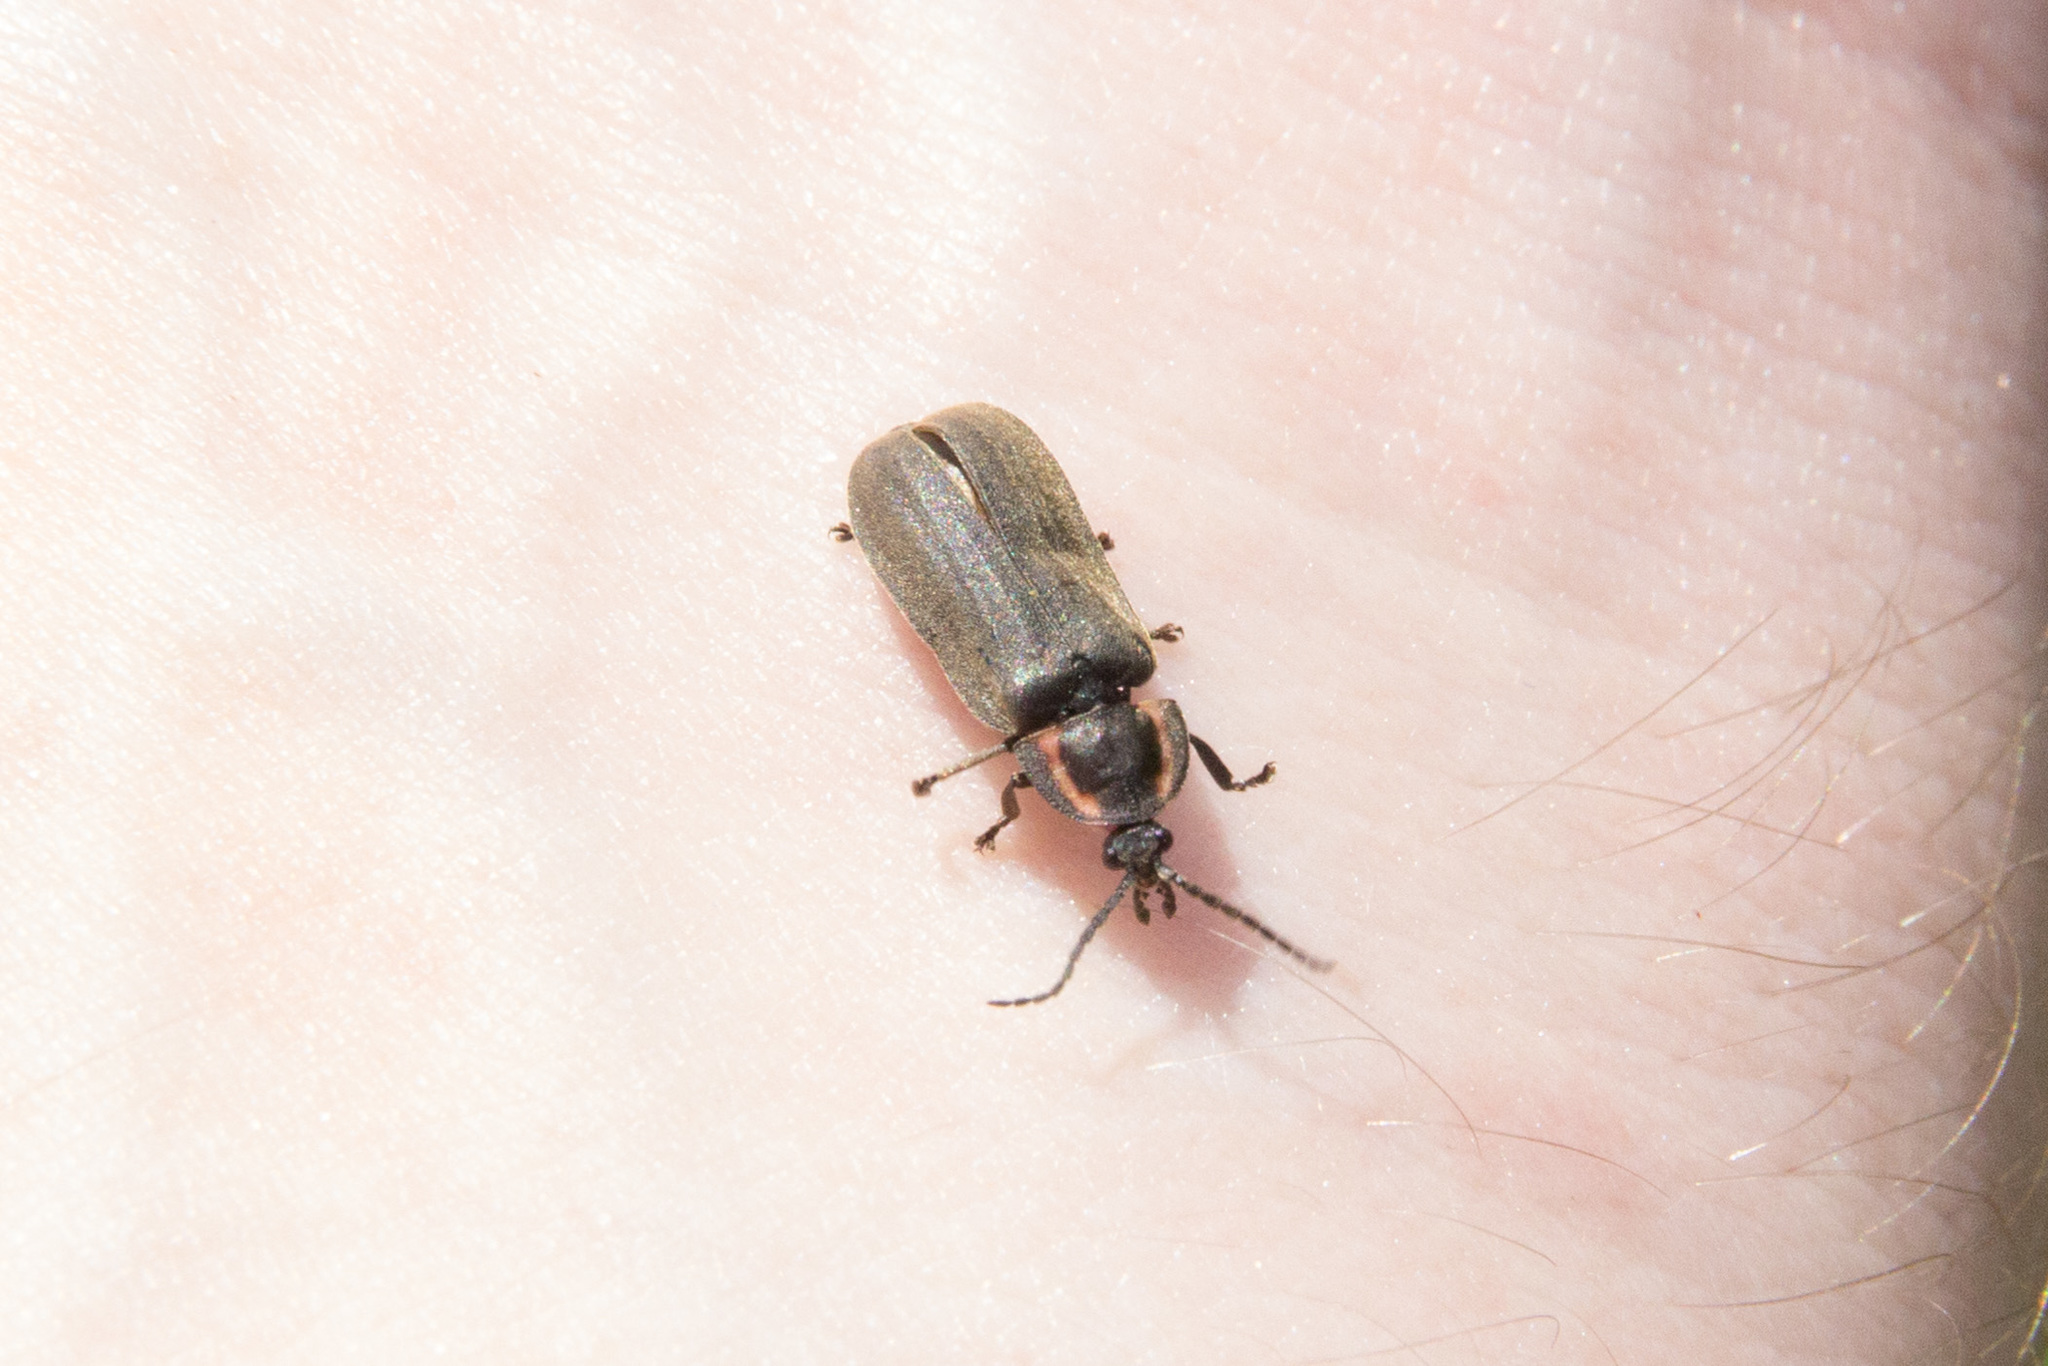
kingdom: Animalia
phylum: Arthropoda
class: Insecta
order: Coleoptera
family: Lampyridae
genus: Photinus
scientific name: Photinus corrusca
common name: Winter firefly
